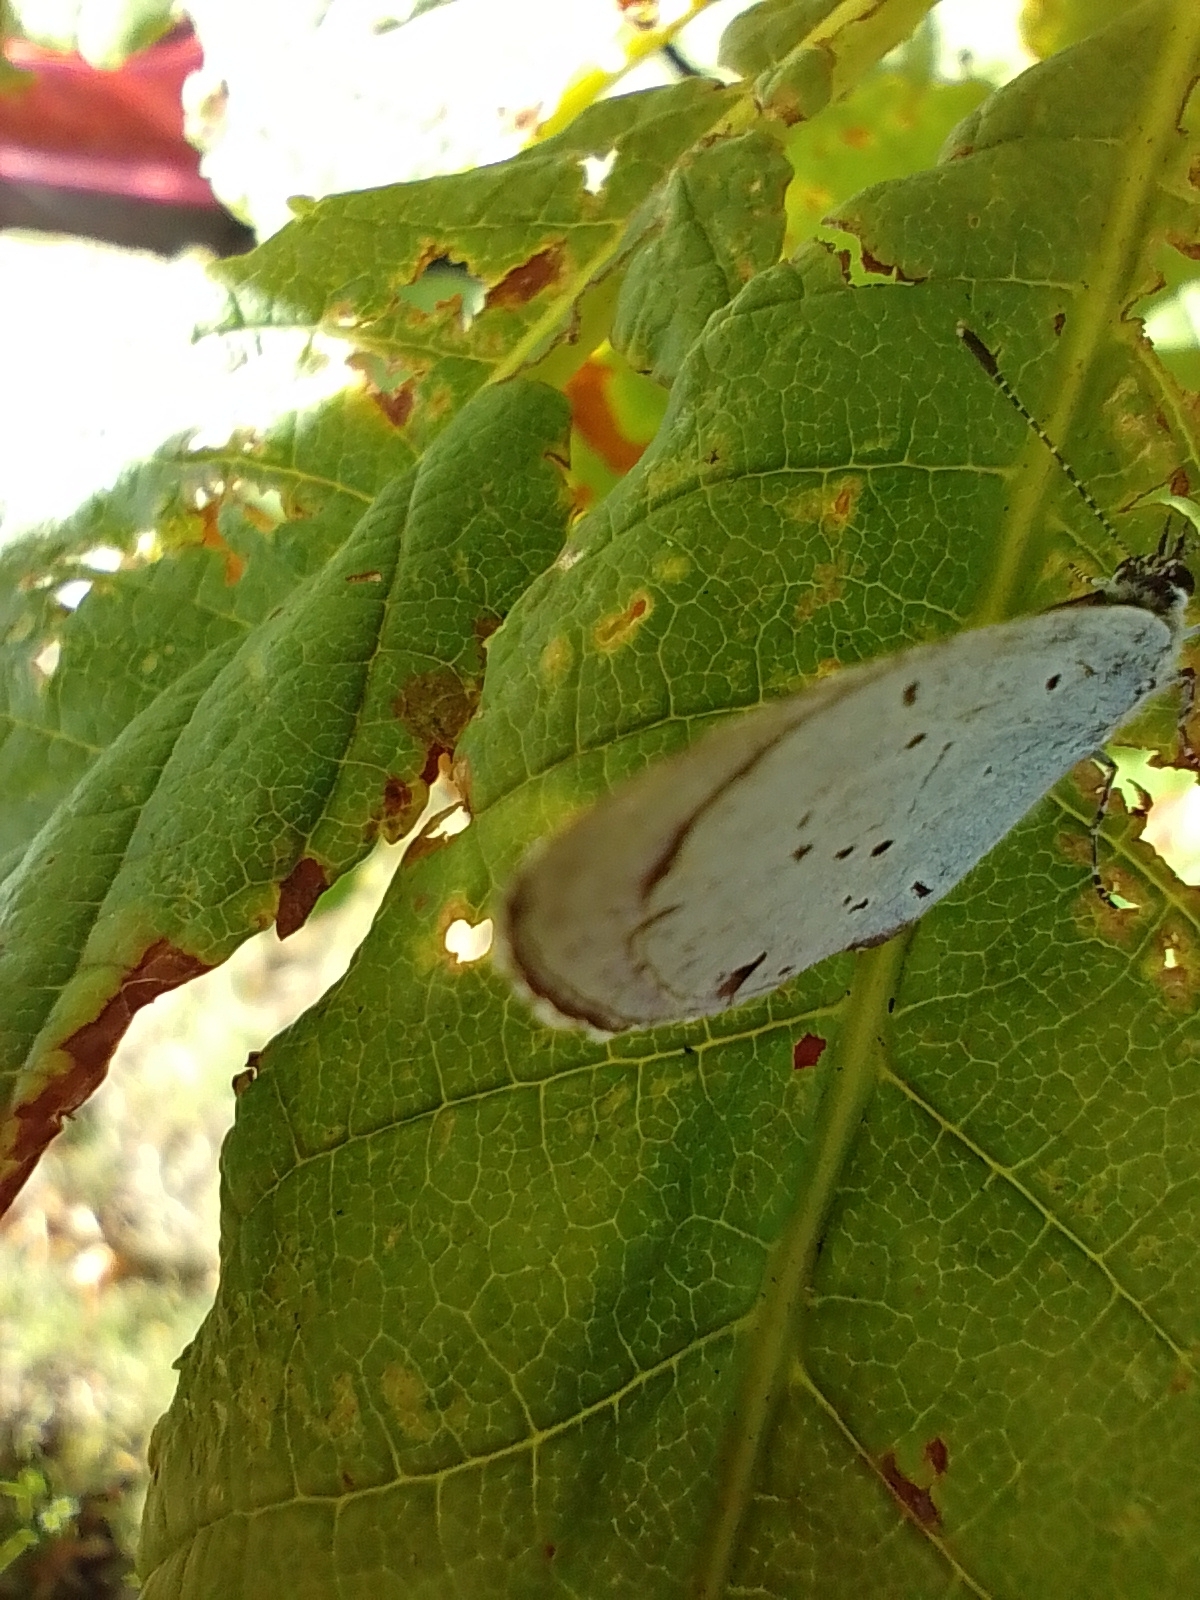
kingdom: Animalia
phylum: Arthropoda
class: Insecta
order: Lepidoptera
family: Lycaenidae
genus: Celastrina
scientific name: Celastrina argiolus
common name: Holly blue
